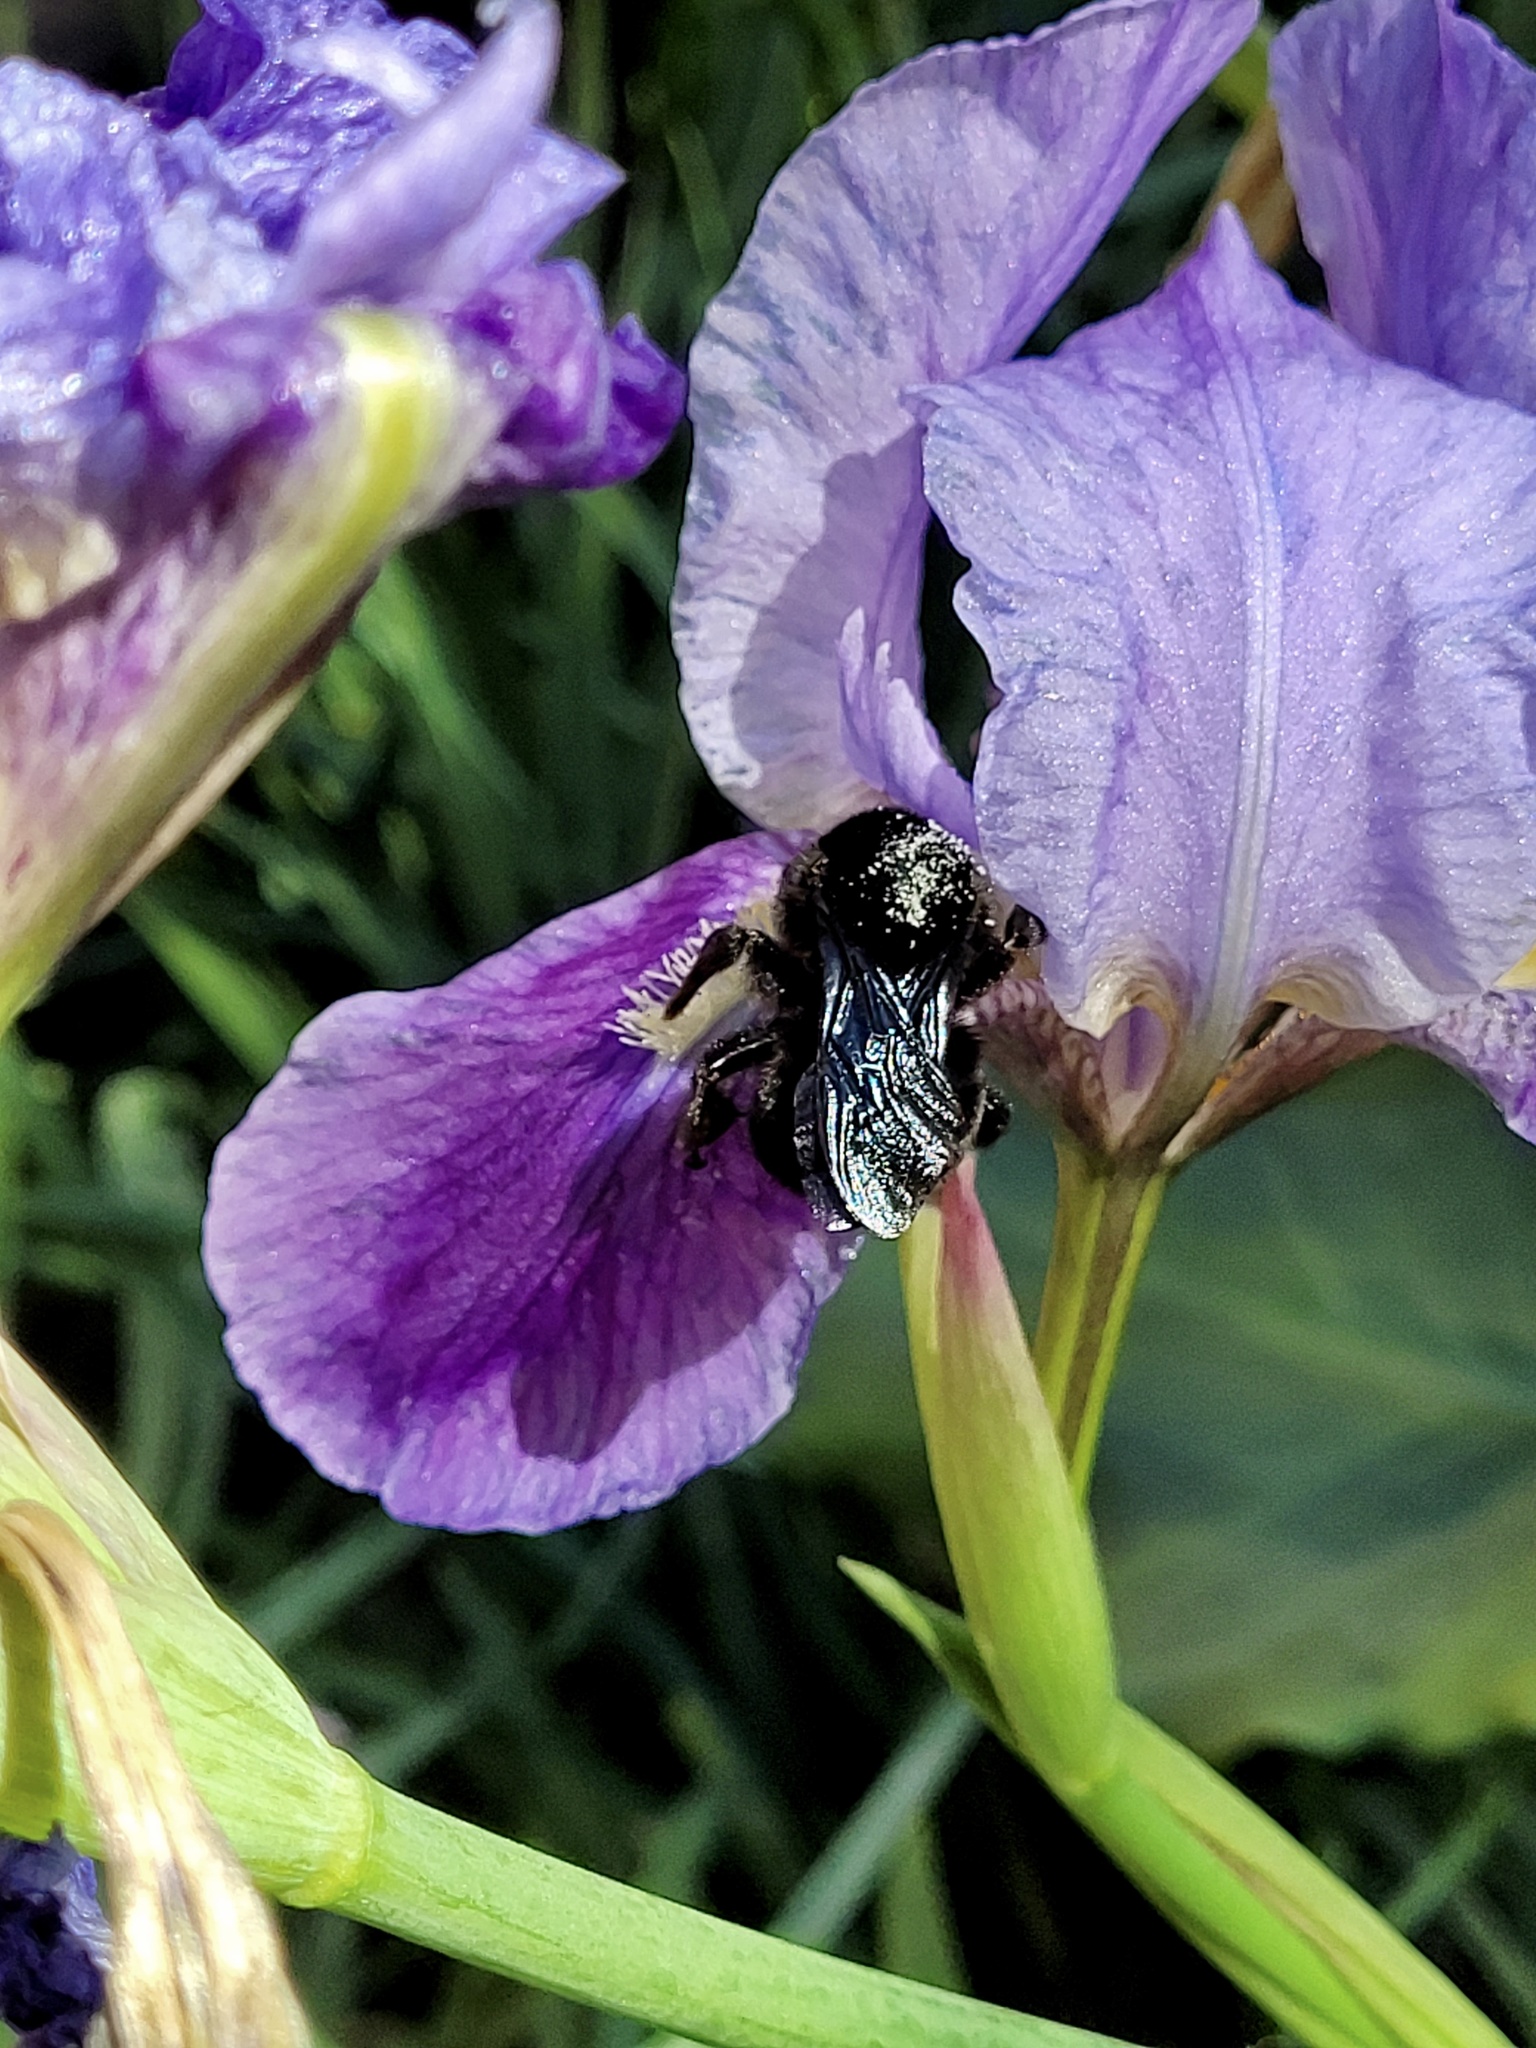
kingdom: Animalia
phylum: Arthropoda
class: Insecta
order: Hymenoptera
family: Apidae
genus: Bombus
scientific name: Bombus pauloensis
